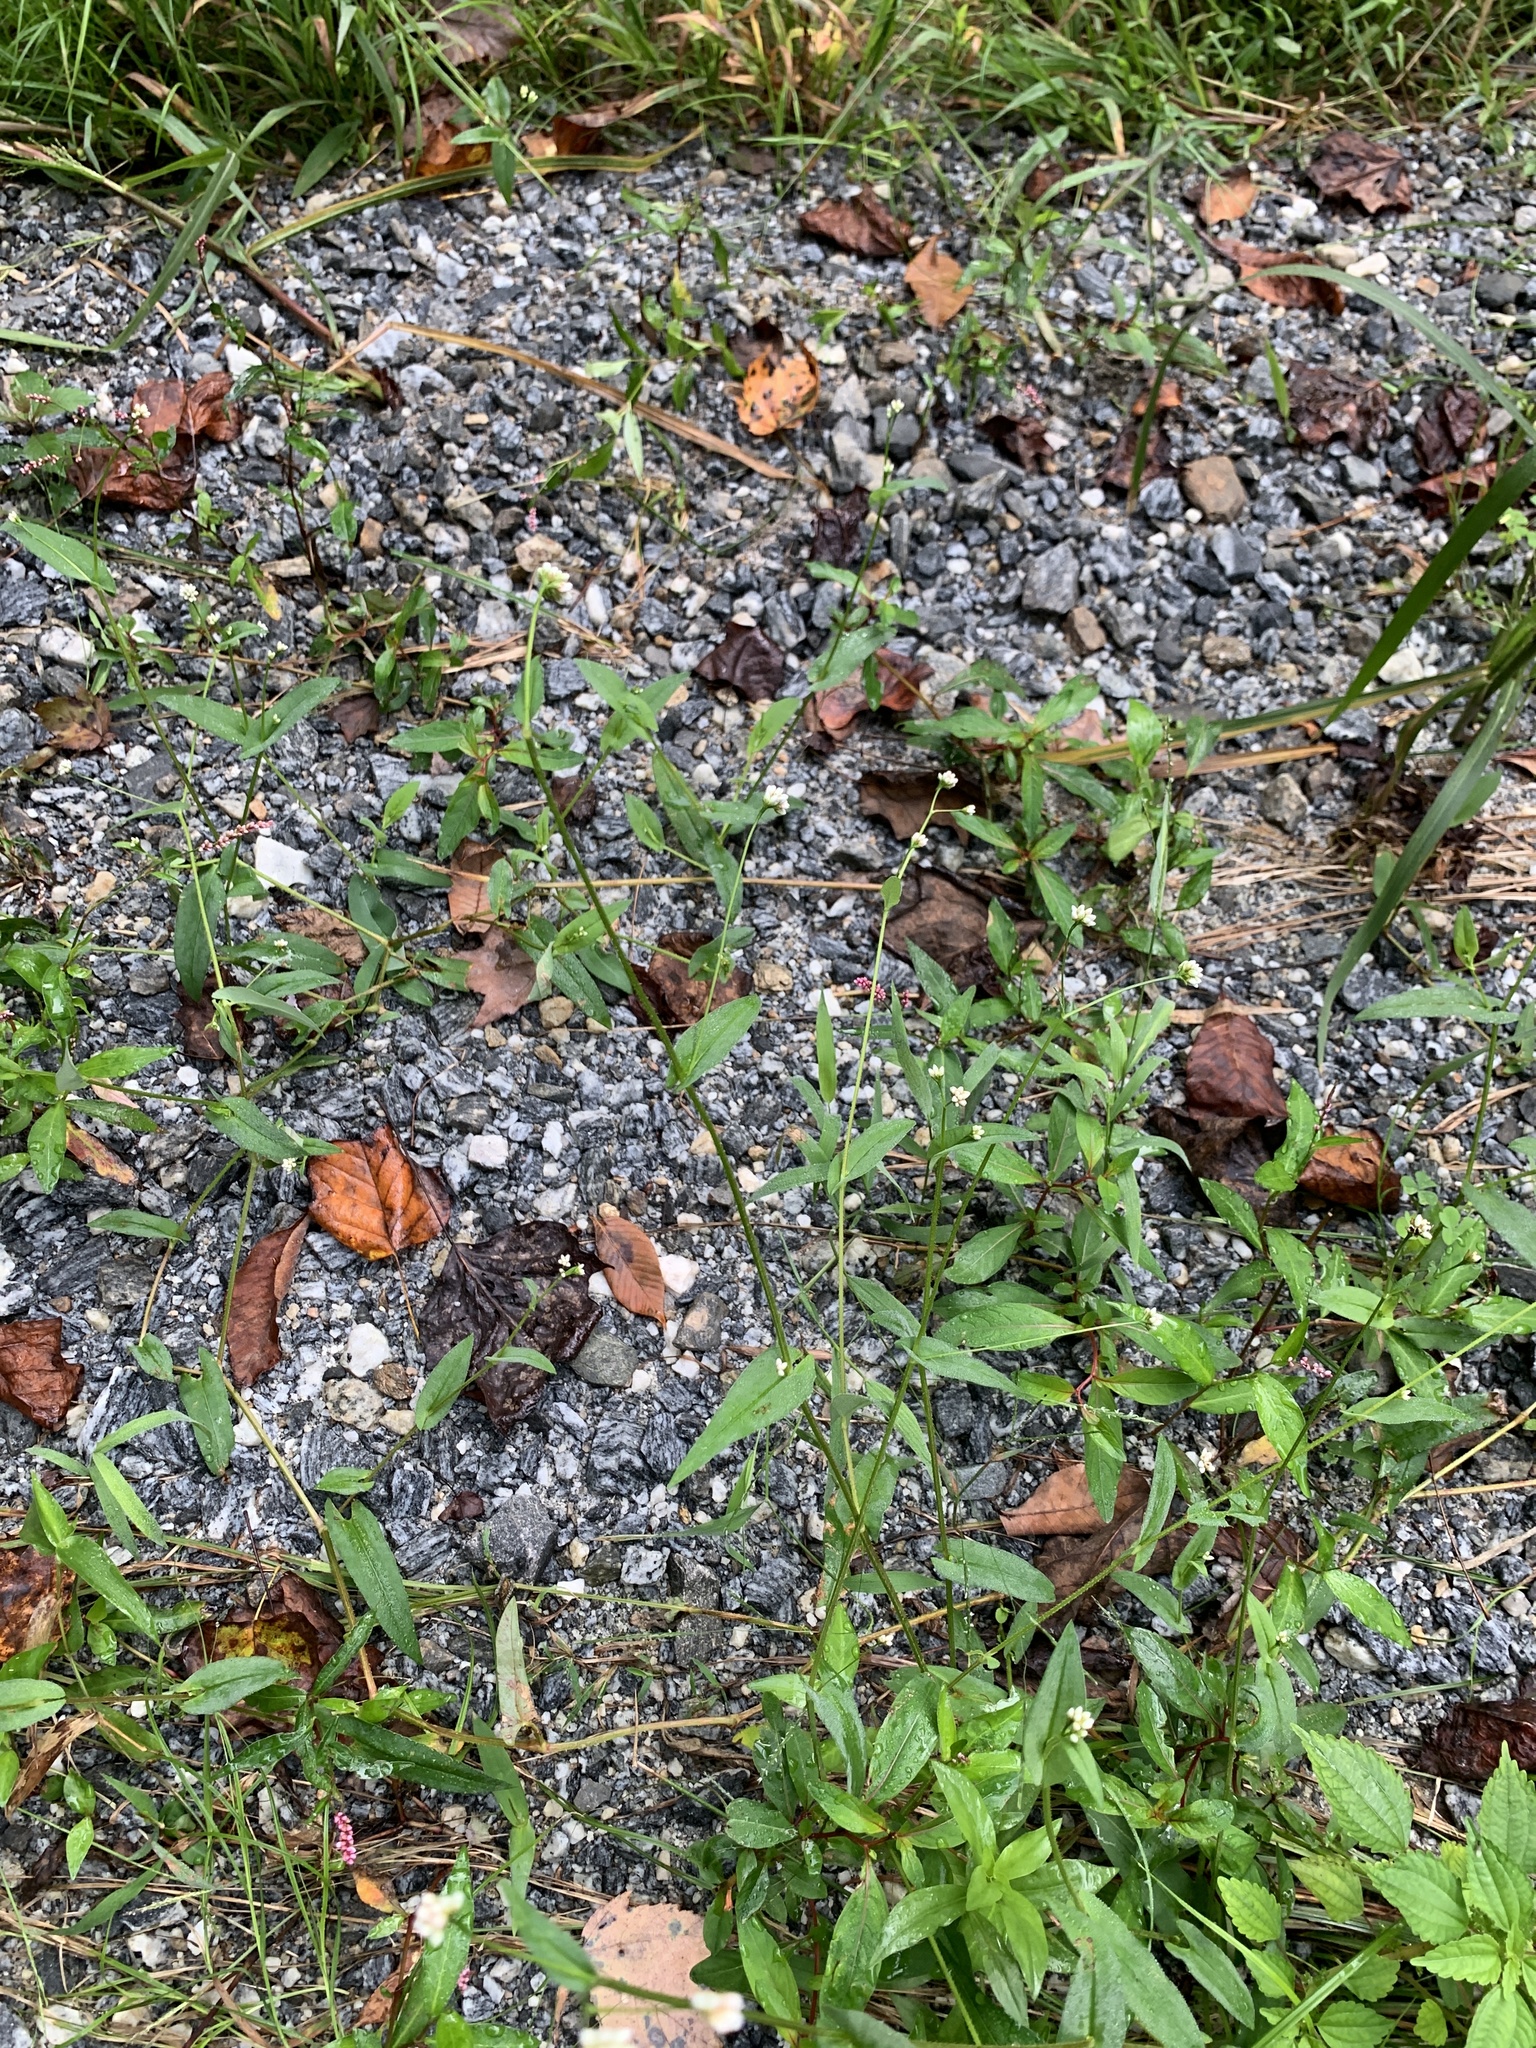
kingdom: Plantae
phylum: Tracheophyta
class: Magnoliopsida
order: Caryophyllales
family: Polygonaceae
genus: Persicaria
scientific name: Persicaria sagittata
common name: American tearthumb
